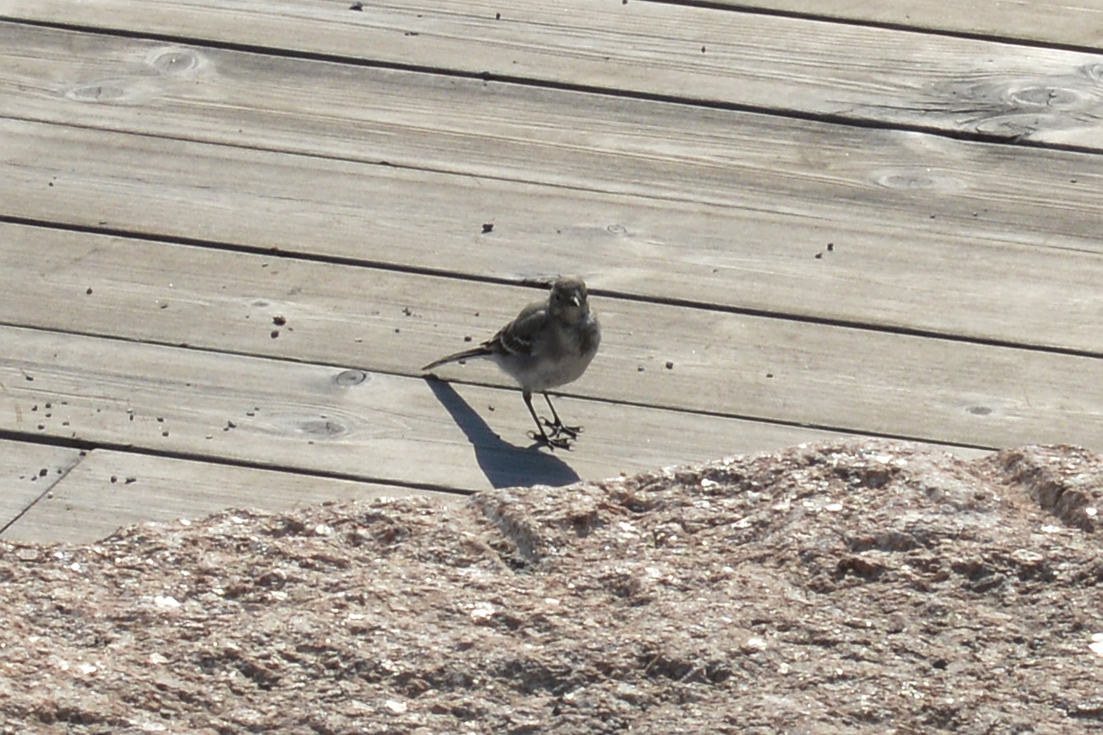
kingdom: Animalia
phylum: Chordata
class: Aves
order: Passeriformes
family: Motacillidae
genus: Motacilla
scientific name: Motacilla alba
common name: White wagtail
